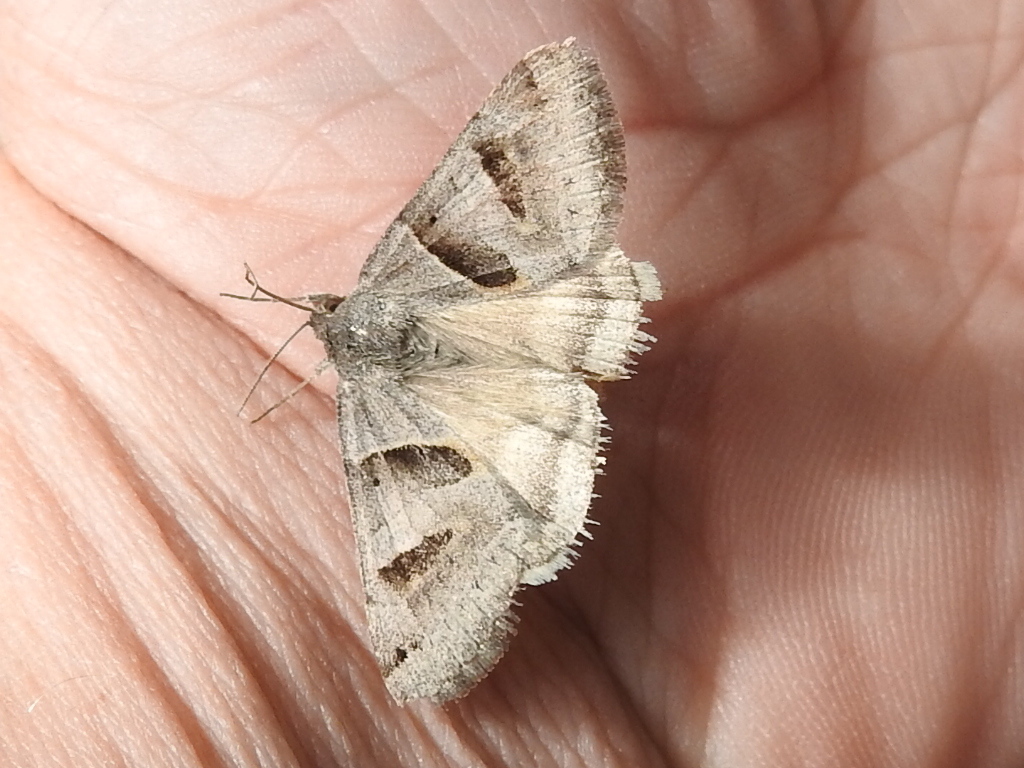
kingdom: Animalia
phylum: Arthropoda
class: Insecta
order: Lepidoptera
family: Erebidae
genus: Caenurgina
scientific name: Caenurgina erechtea
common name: Forage looper moth
